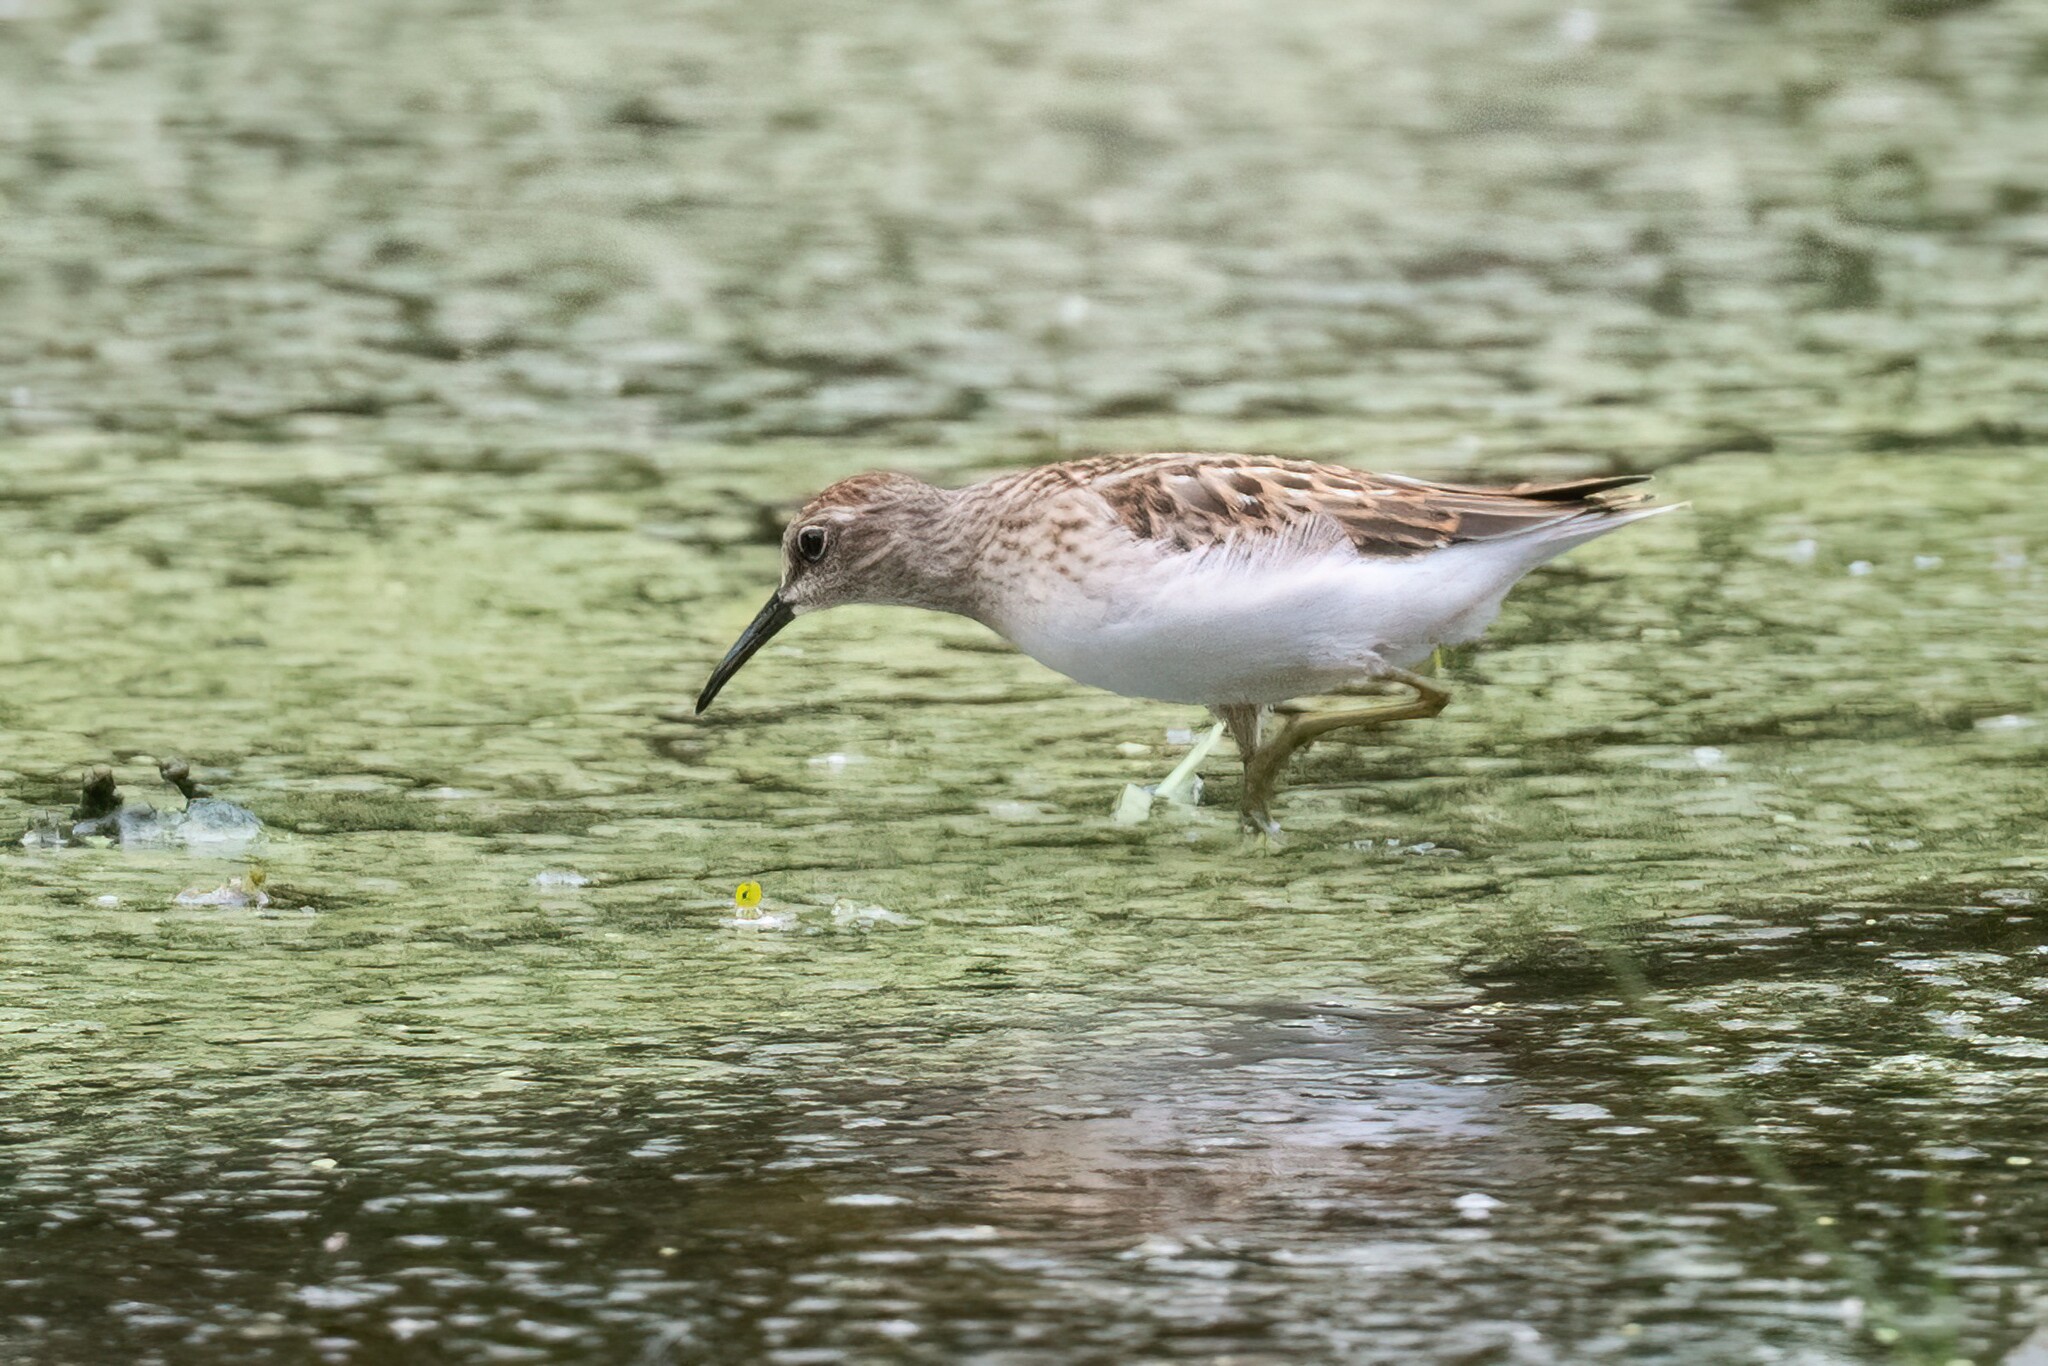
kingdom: Animalia
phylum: Chordata
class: Aves
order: Charadriiformes
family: Scolopacidae
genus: Calidris
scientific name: Calidris minutilla
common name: Least sandpiper
